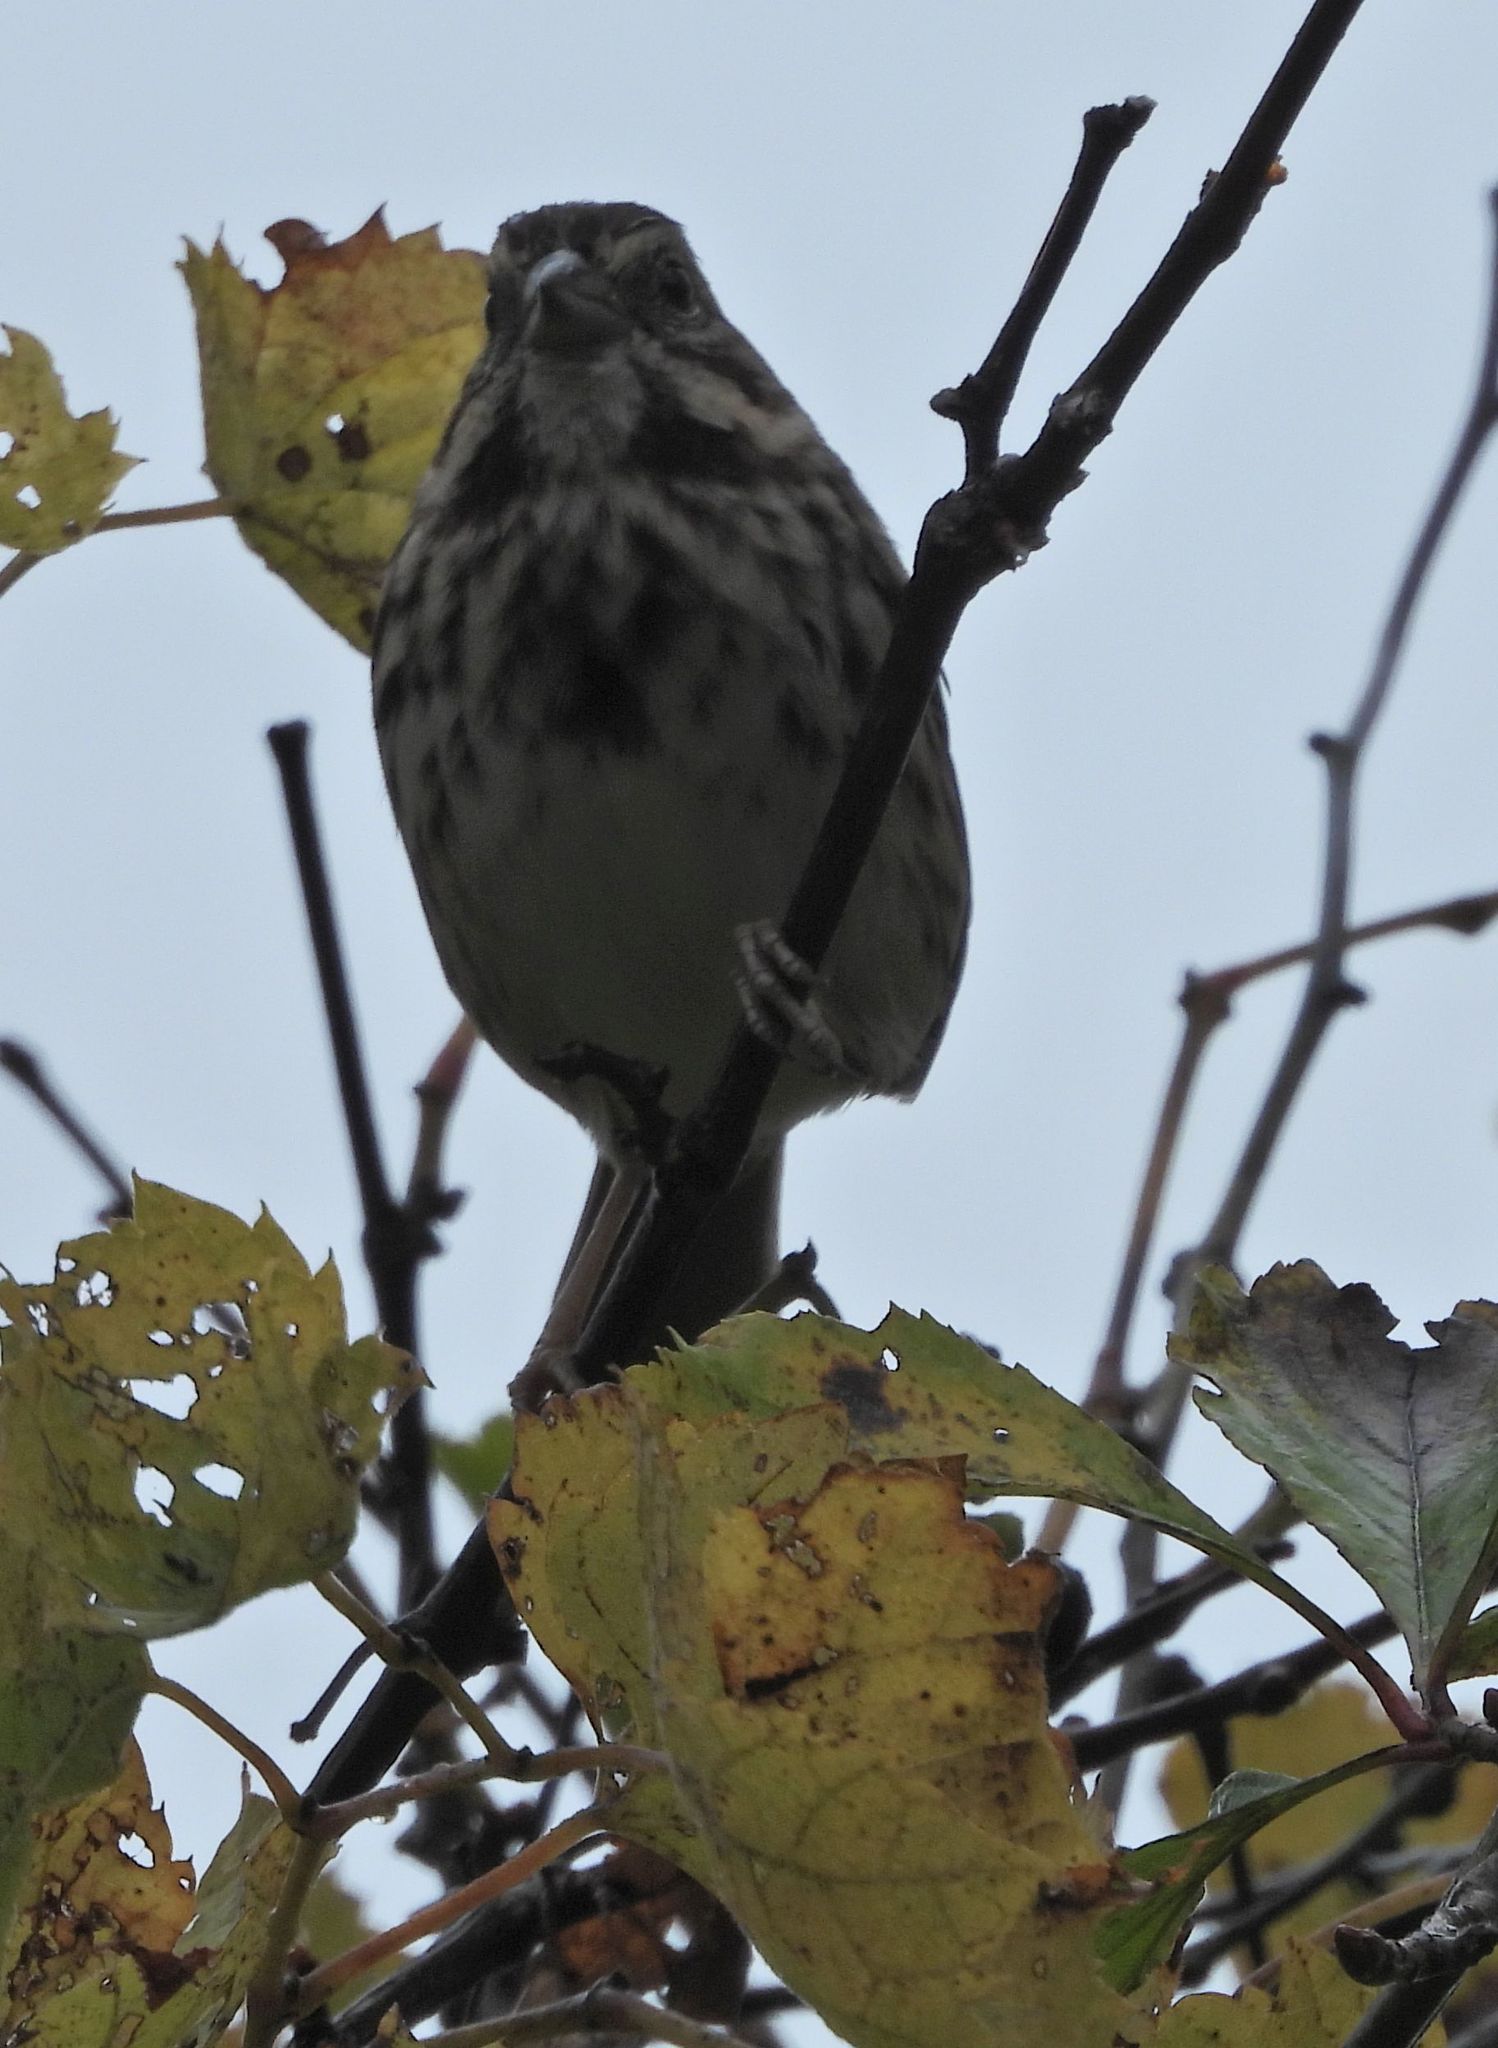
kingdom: Animalia
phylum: Chordata
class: Aves
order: Passeriformes
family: Passerellidae
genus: Melospiza
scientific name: Melospiza melodia
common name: Song sparrow
